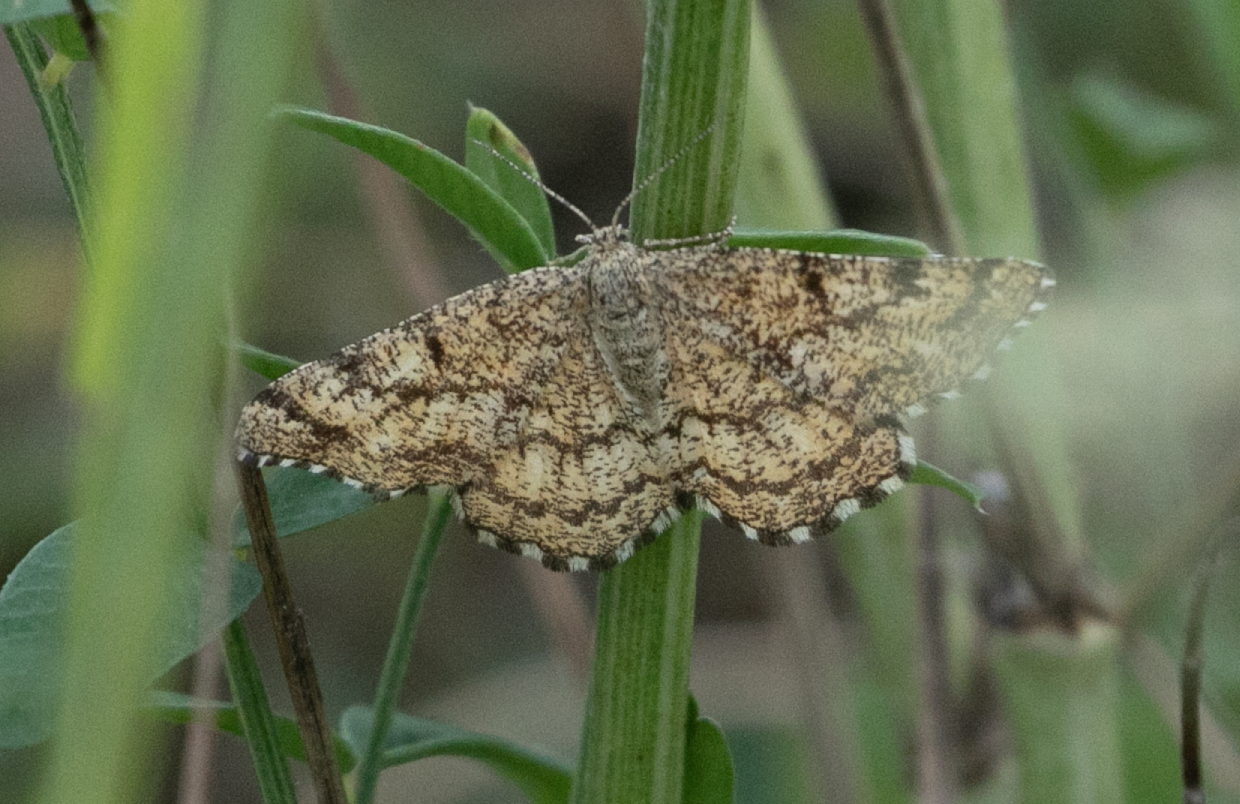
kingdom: Animalia
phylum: Arthropoda
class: Insecta
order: Lepidoptera
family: Geometridae
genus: Ematurga
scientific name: Ematurga atomaria
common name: Common heath
